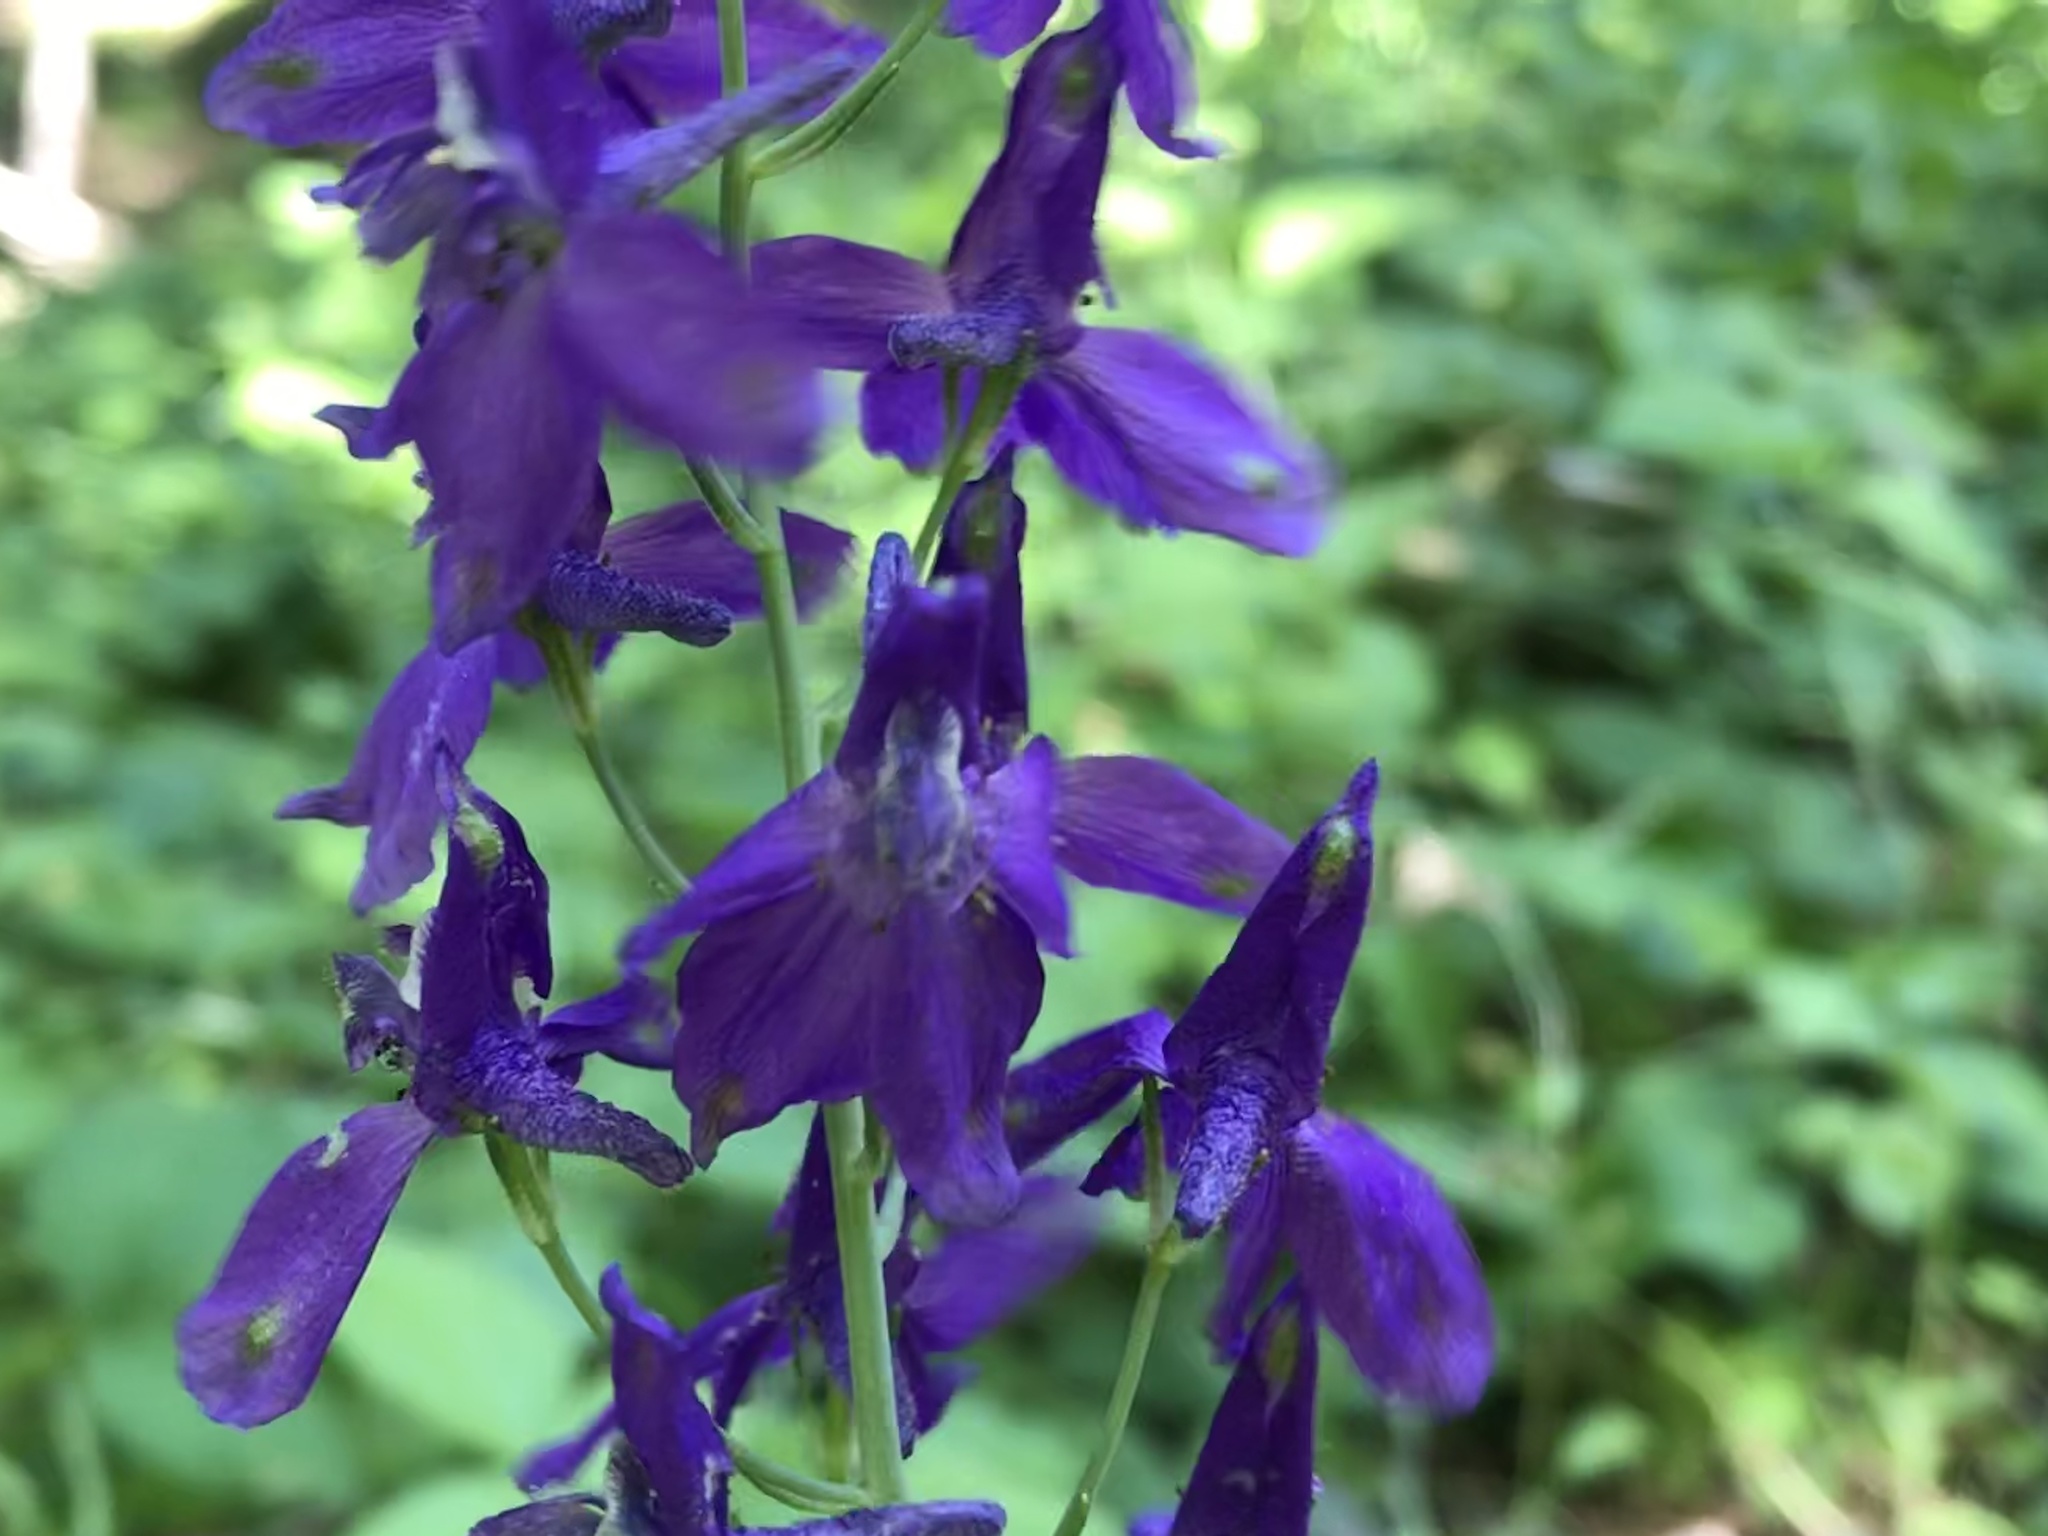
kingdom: Plantae
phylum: Tracheophyta
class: Magnoliopsida
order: Ranunculales
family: Ranunculaceae
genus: Delphinium
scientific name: Delphinium patens
